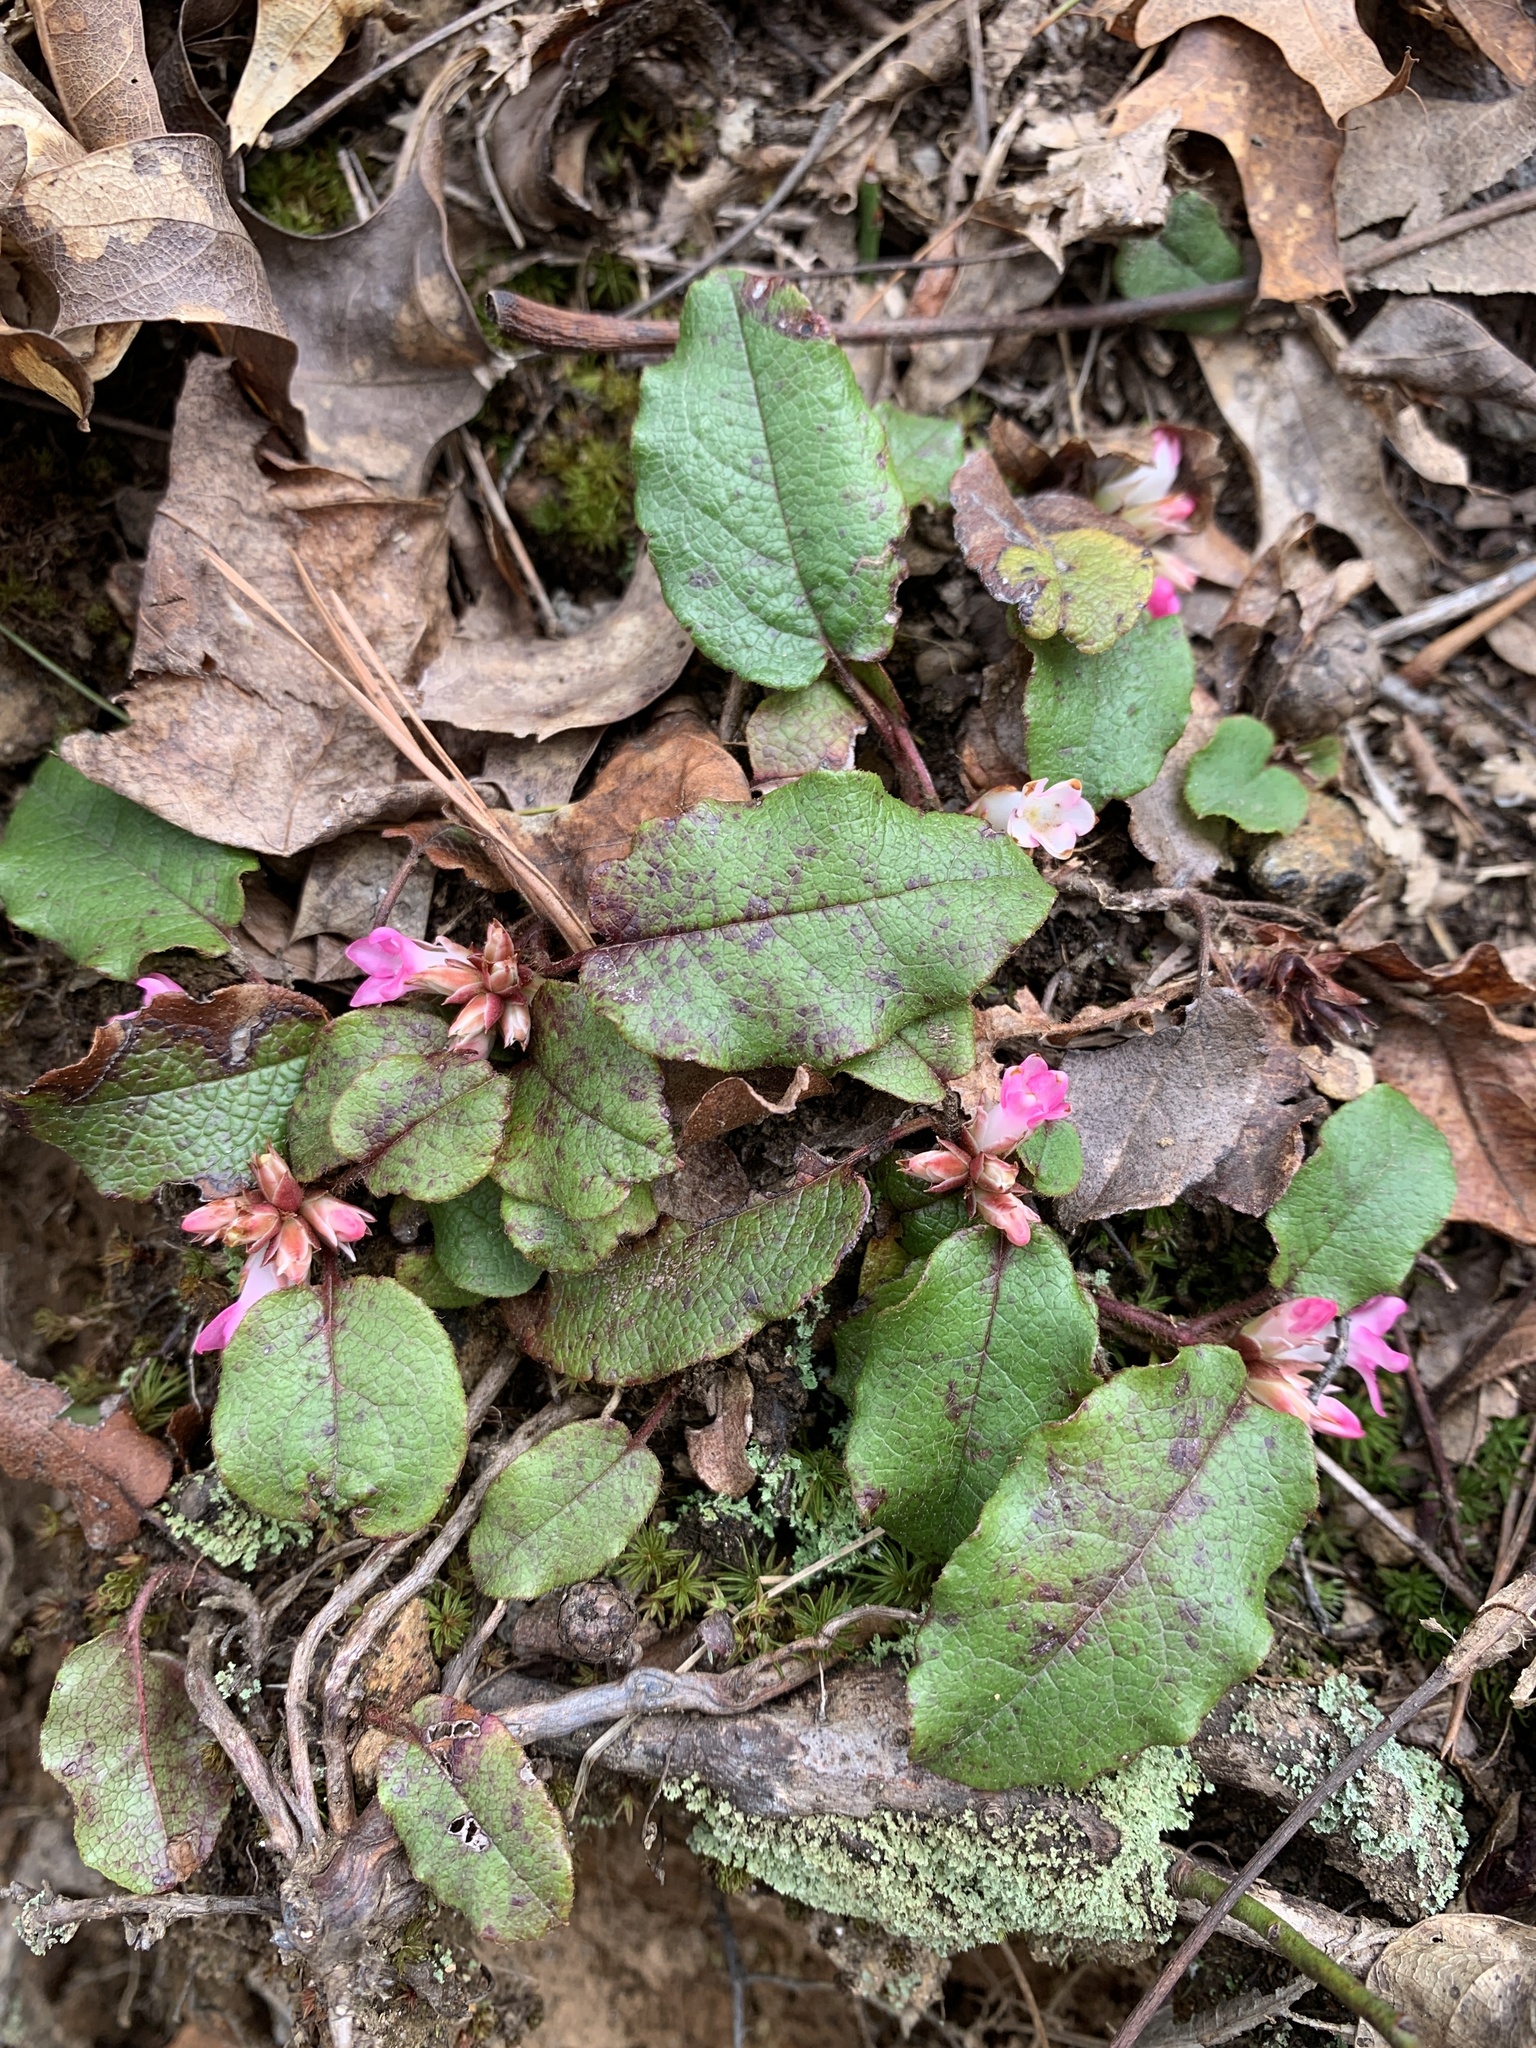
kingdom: Plantae
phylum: Tracheophyta
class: Magnoliopsida
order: Ericales
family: Ericaceae
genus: Epigaea
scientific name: Epigaea repens
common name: Gravelroot
